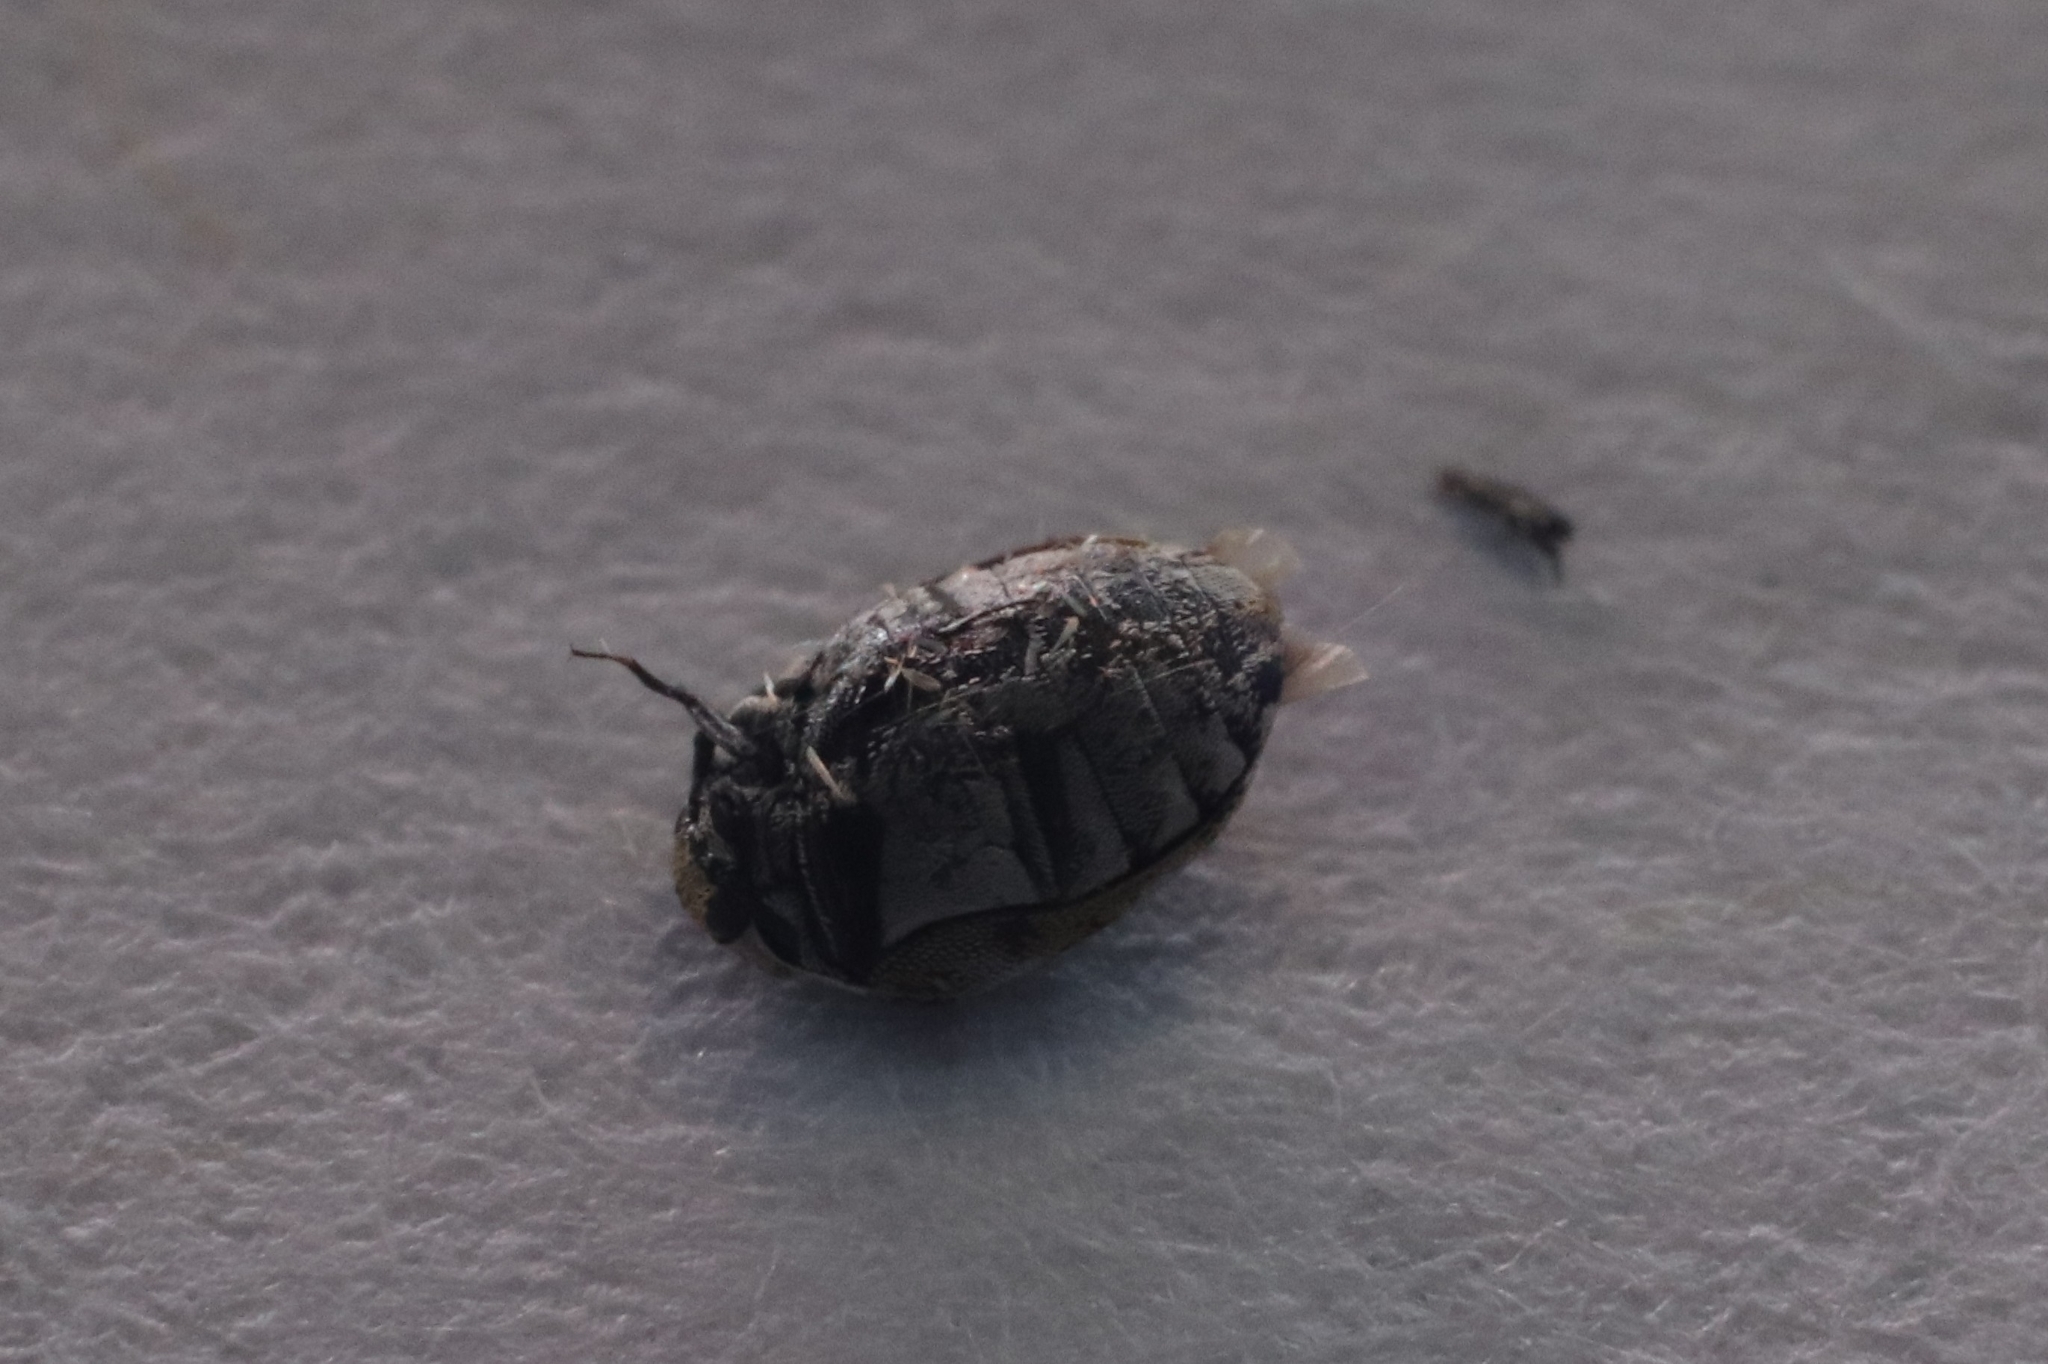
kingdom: Animalia
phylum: Arthropoda
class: Insecta
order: Coleoptera
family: Dermestidae
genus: Anthrenus
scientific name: Anthrenus verbasci
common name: Varied carpet beetle
